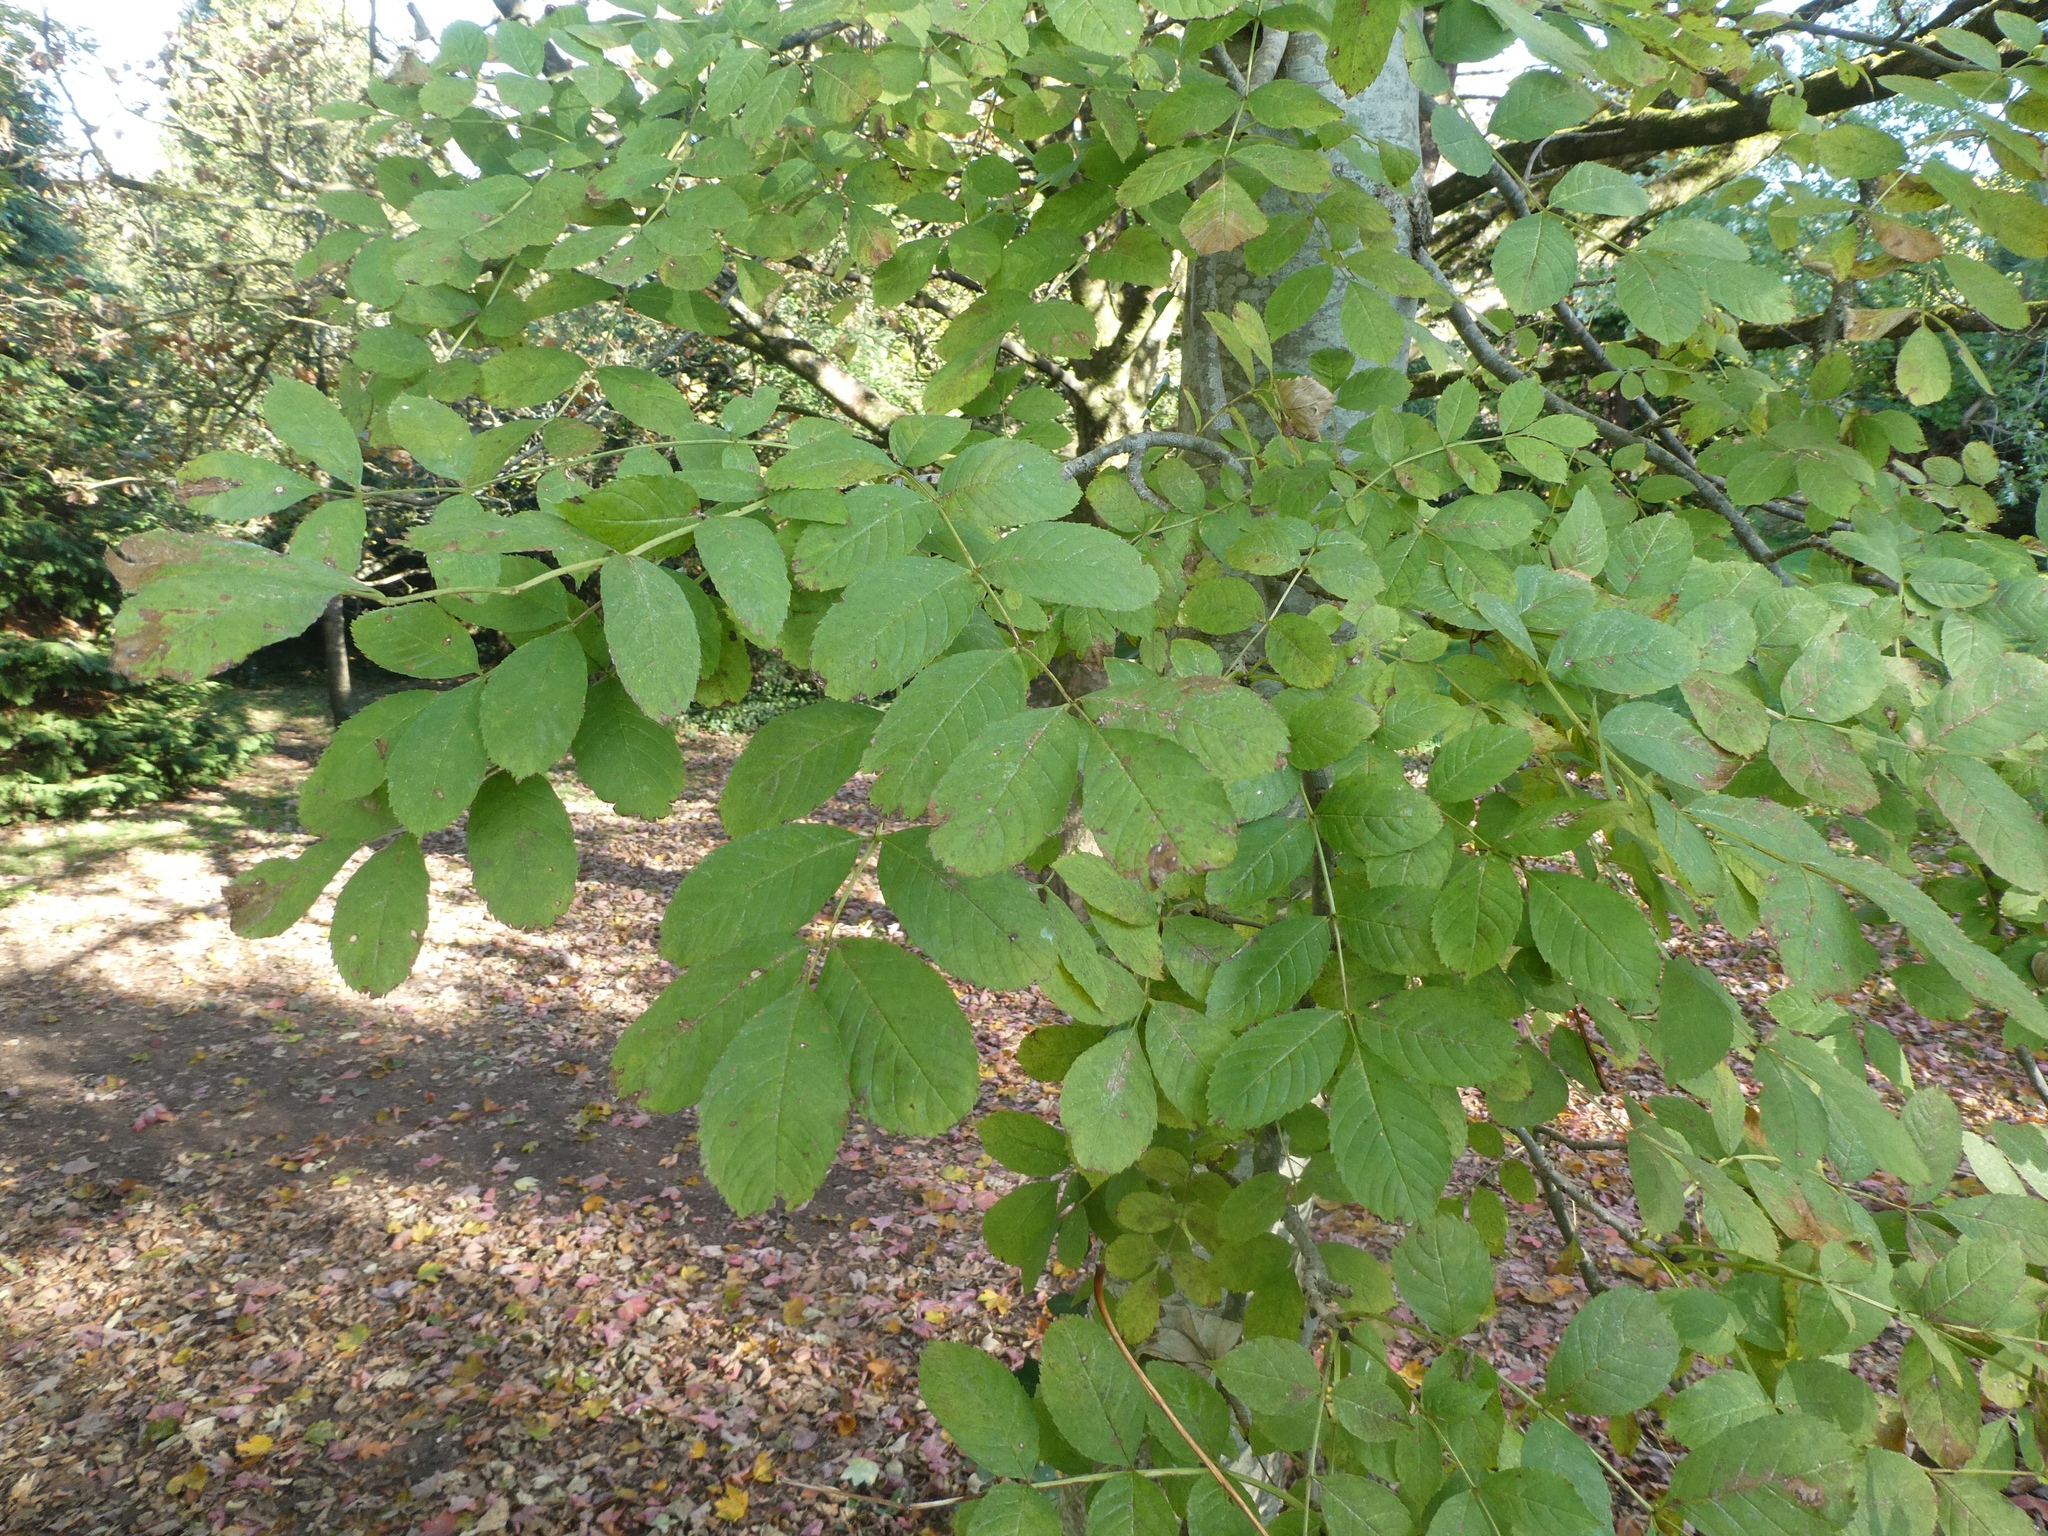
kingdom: Plantae
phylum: Tracheophyta
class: Magnoliopsida
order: Lamiales
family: Oleaceae
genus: Fraxinus
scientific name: Fraxinus excelsior
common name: European ash
